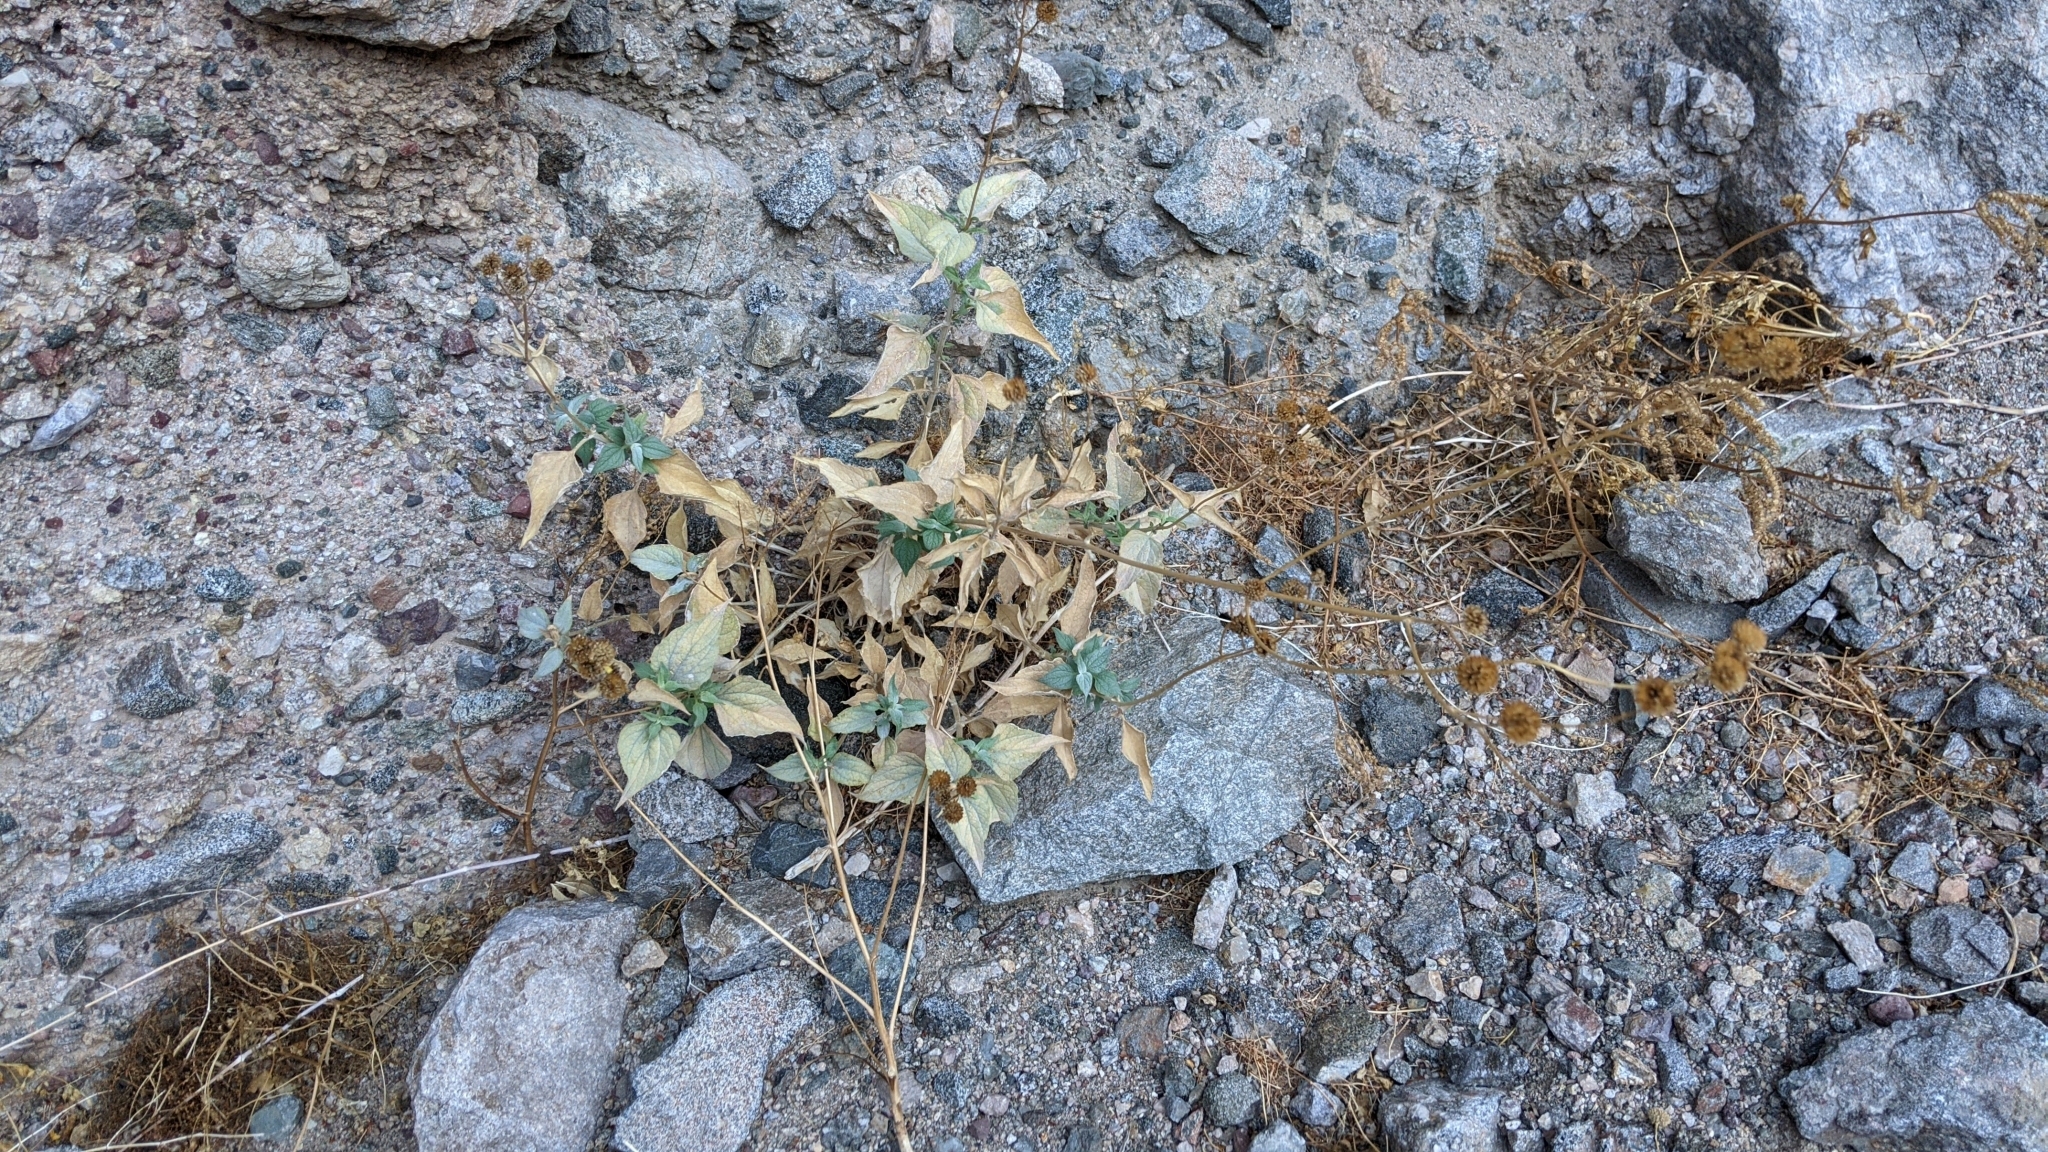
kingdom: Plantae
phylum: Tracheophyta
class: Magnoliopsida
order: Asterales
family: Asteraceae
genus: Bahiopsis
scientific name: Bahiopsis reticulata
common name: Death valley goldeneye
